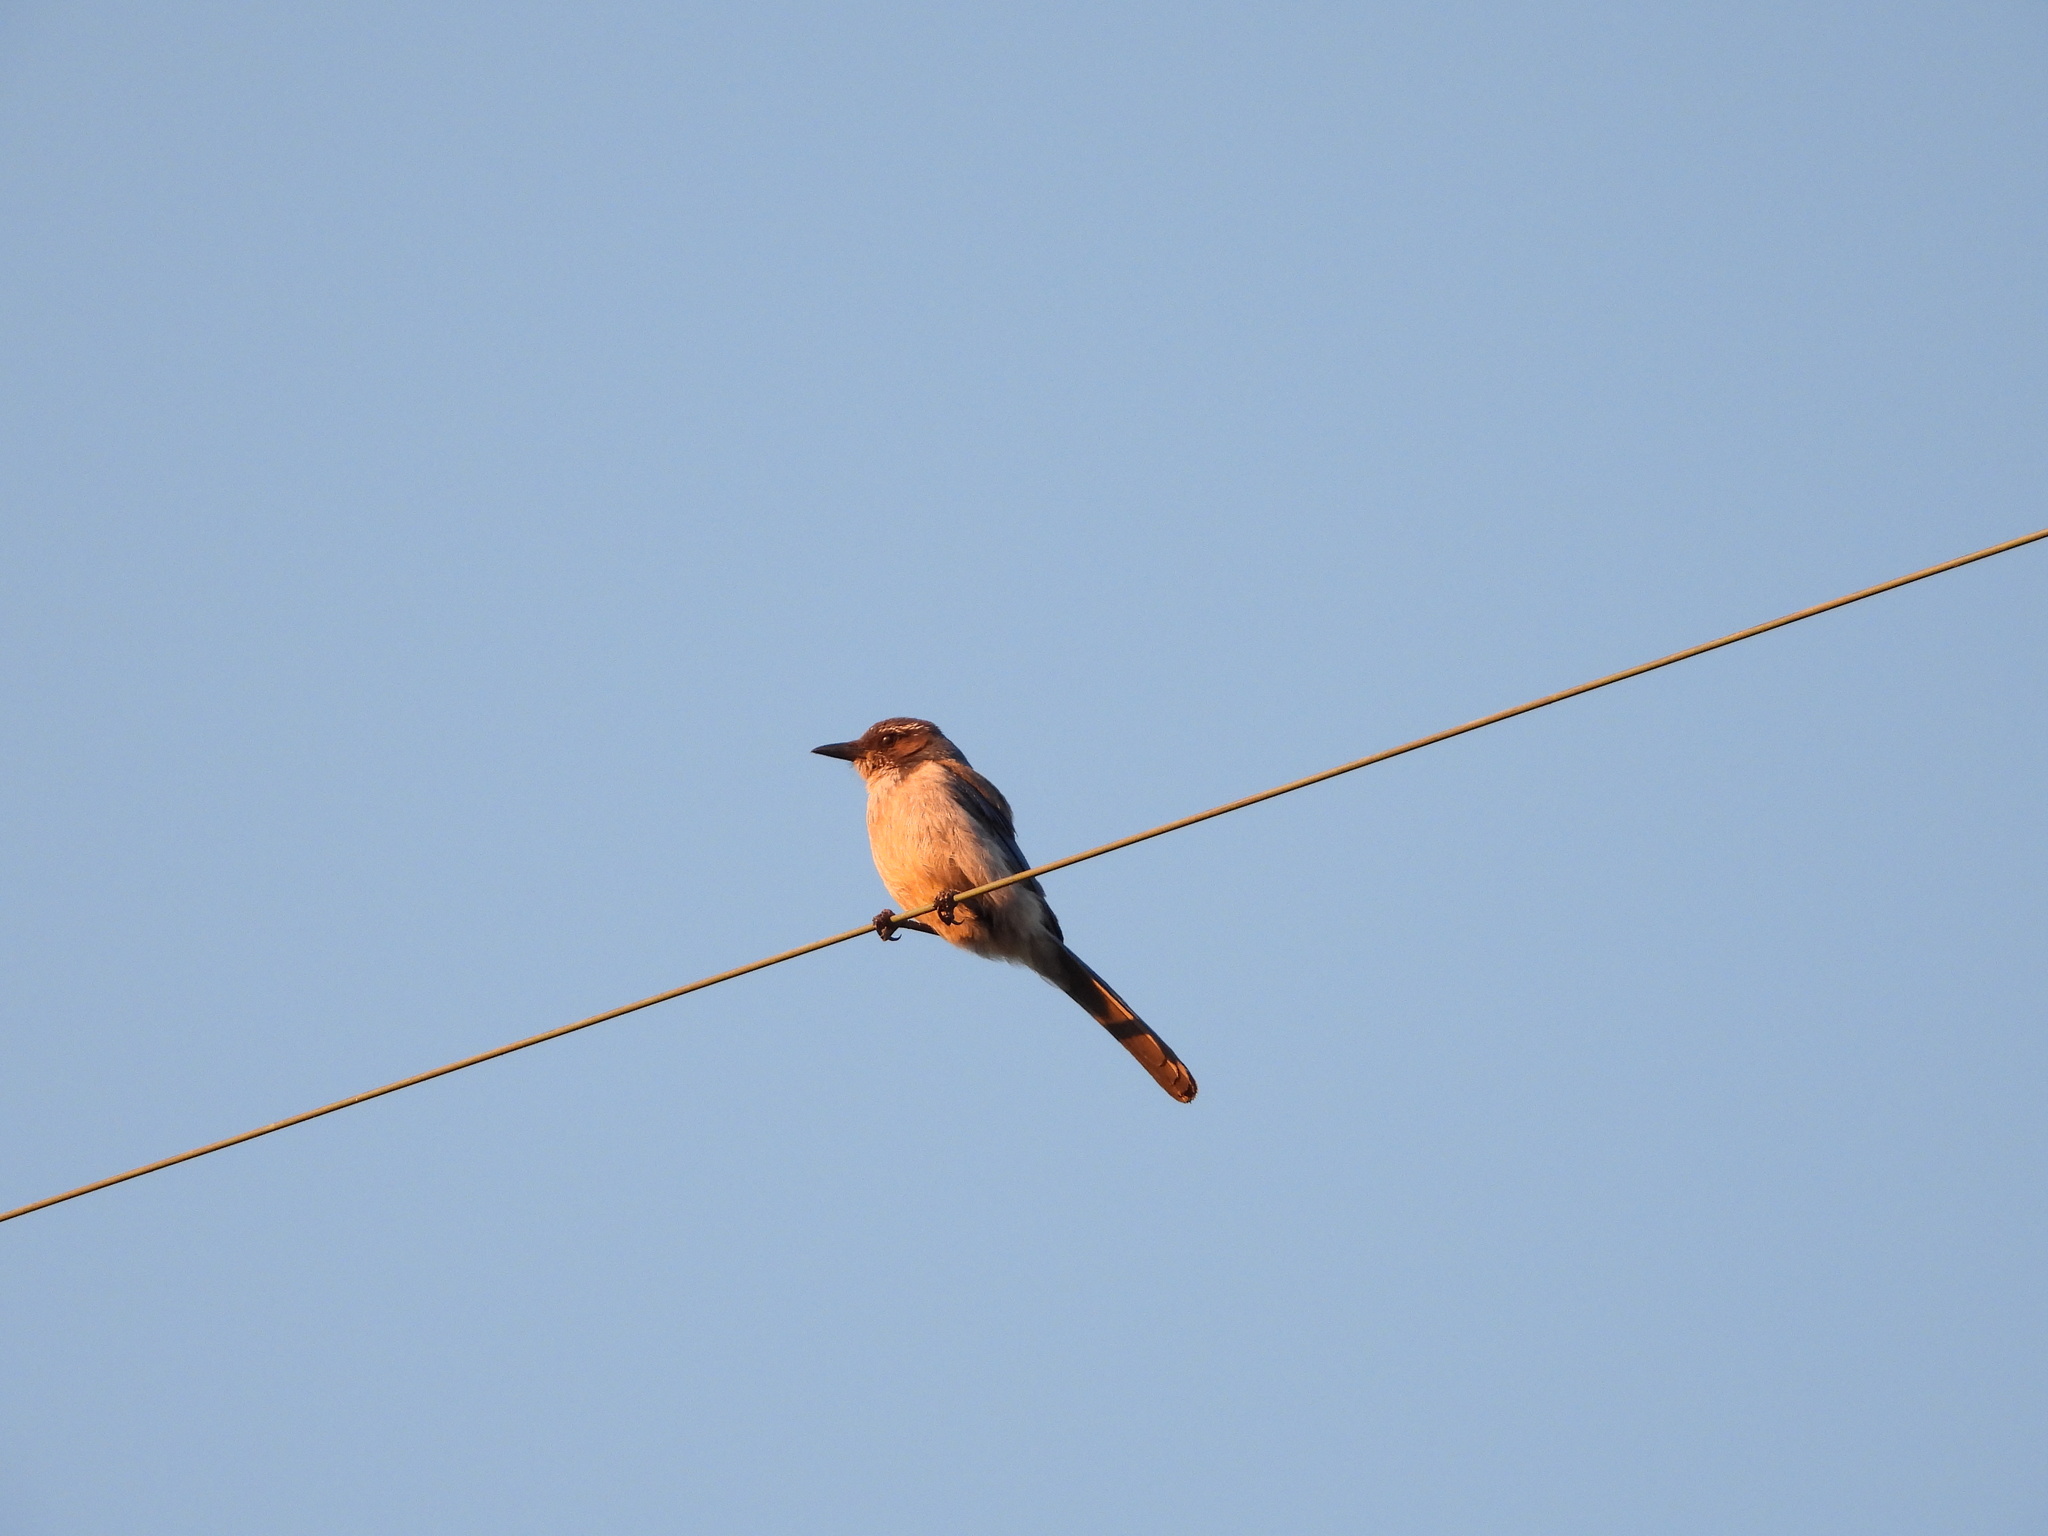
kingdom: Animalia
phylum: Chordata
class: Aves
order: Passeriformes
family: Corvidae
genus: Aphelocoma
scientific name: Aphelocoma californica
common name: California scrub-jay
